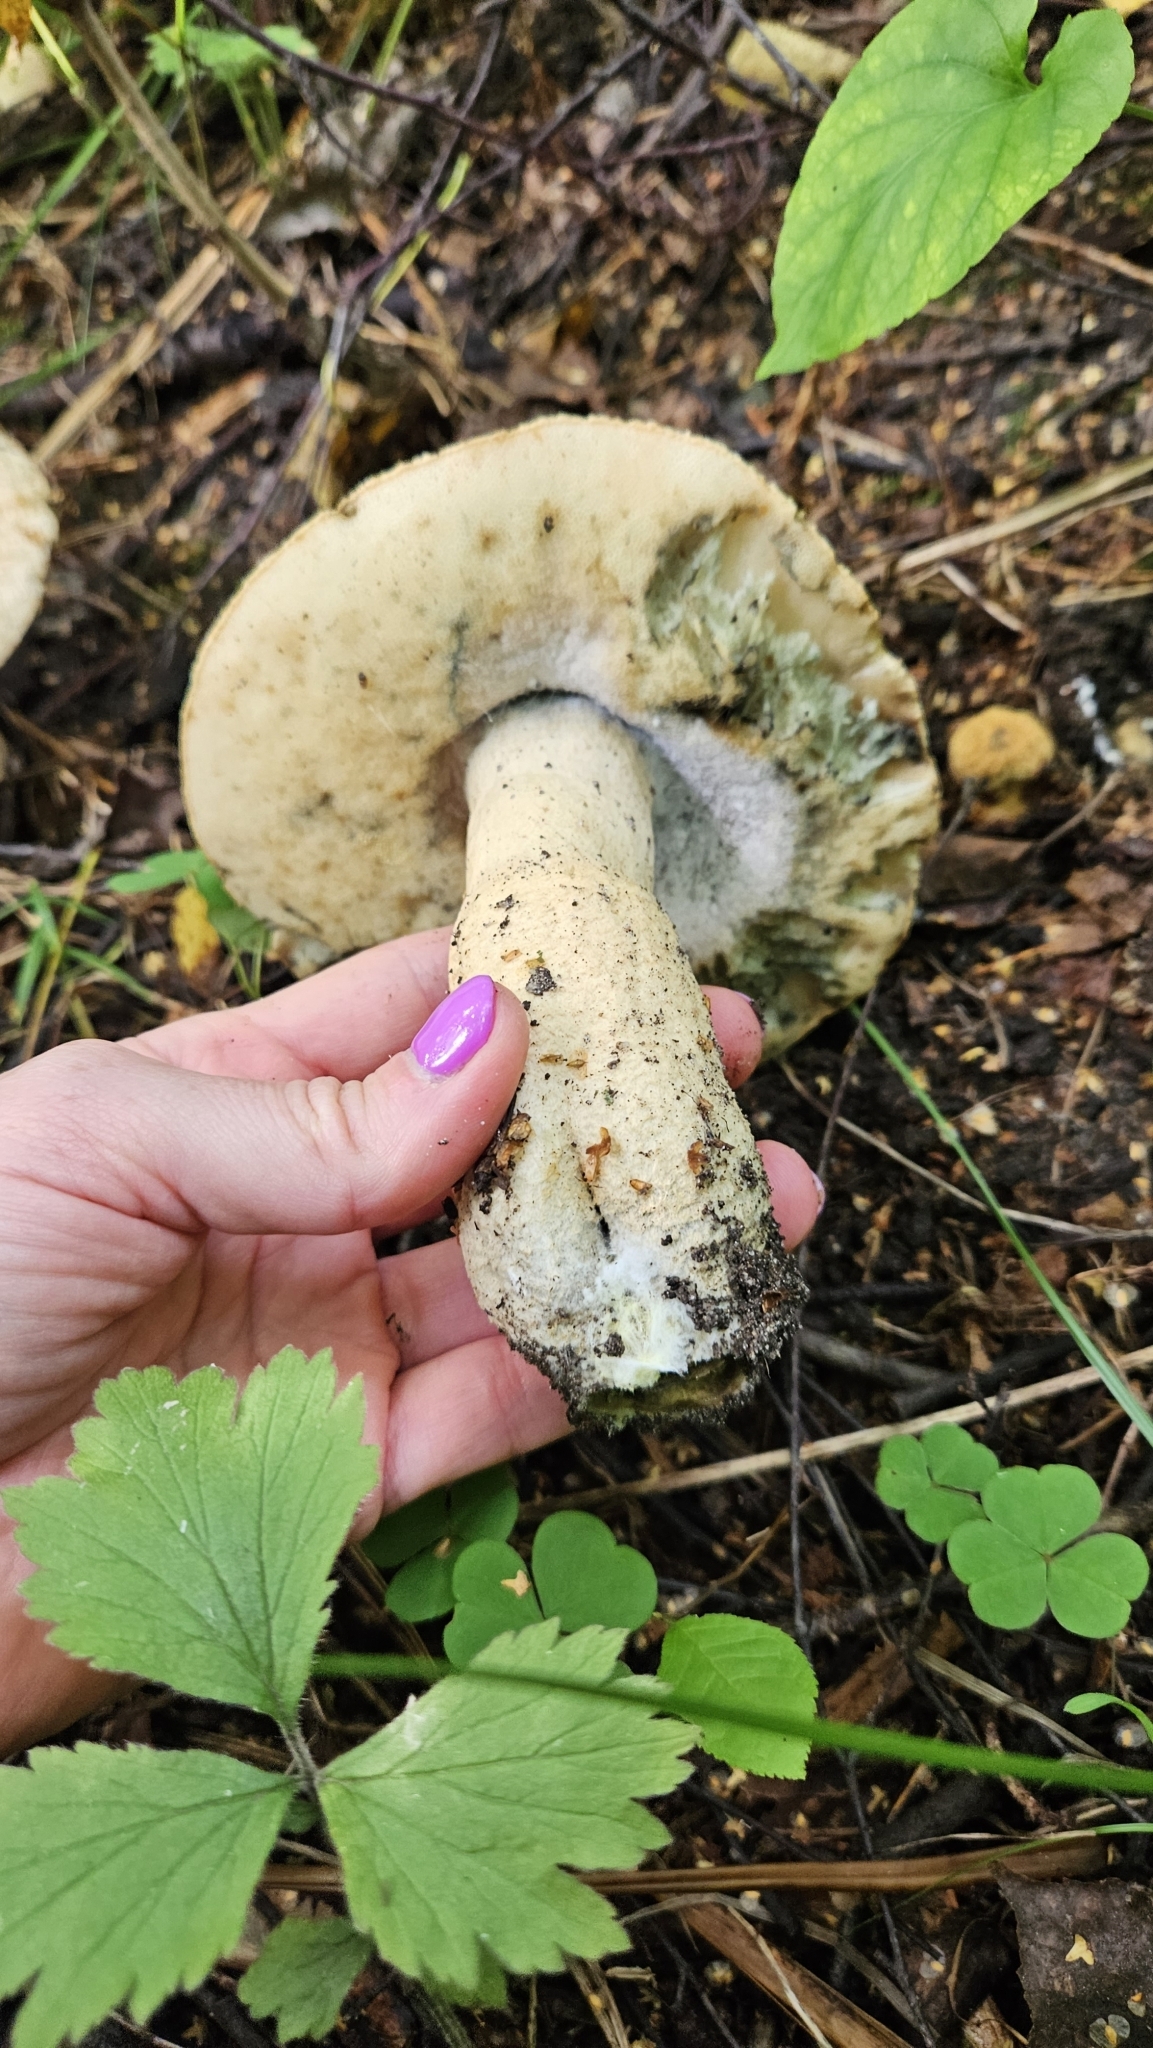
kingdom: Fungi
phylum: Basidiomycota
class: Agaricomycetes
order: Boletales
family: Gyroporaceae
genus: Gyroporus
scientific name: Gyroporus cyanescens
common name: Cornflower bolete
